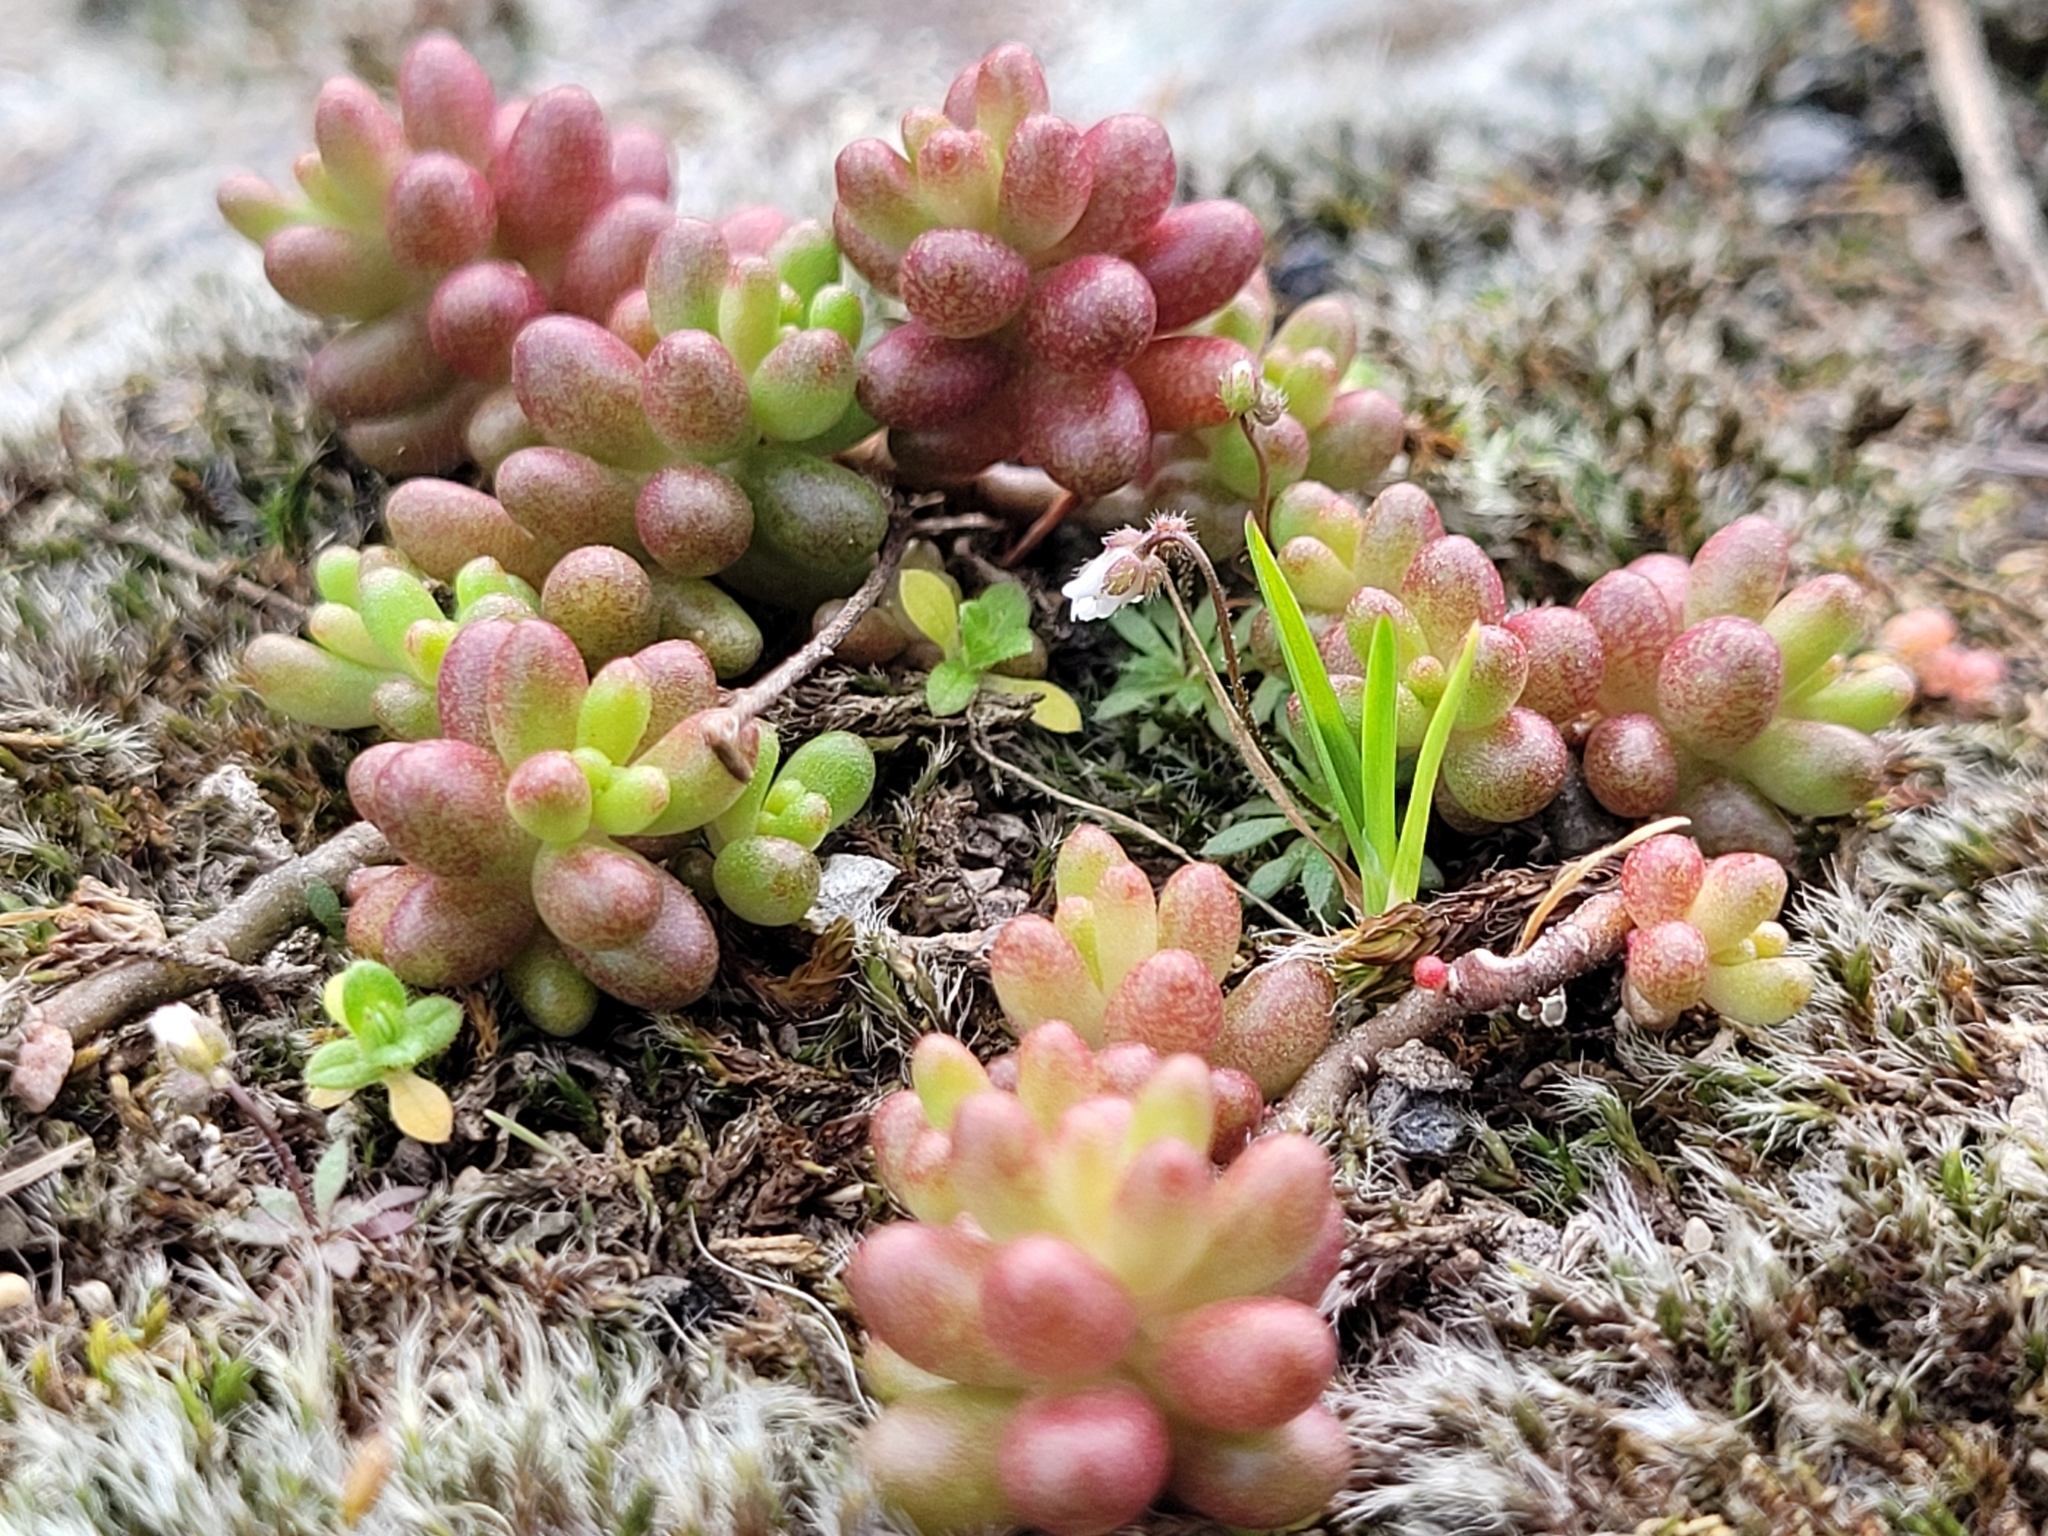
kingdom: Plantae
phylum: Tracheophyta
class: Magnoliopsida
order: Saxifragales
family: Crassulaceae
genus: Sedum
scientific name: Sedum album
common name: White stonecrop
